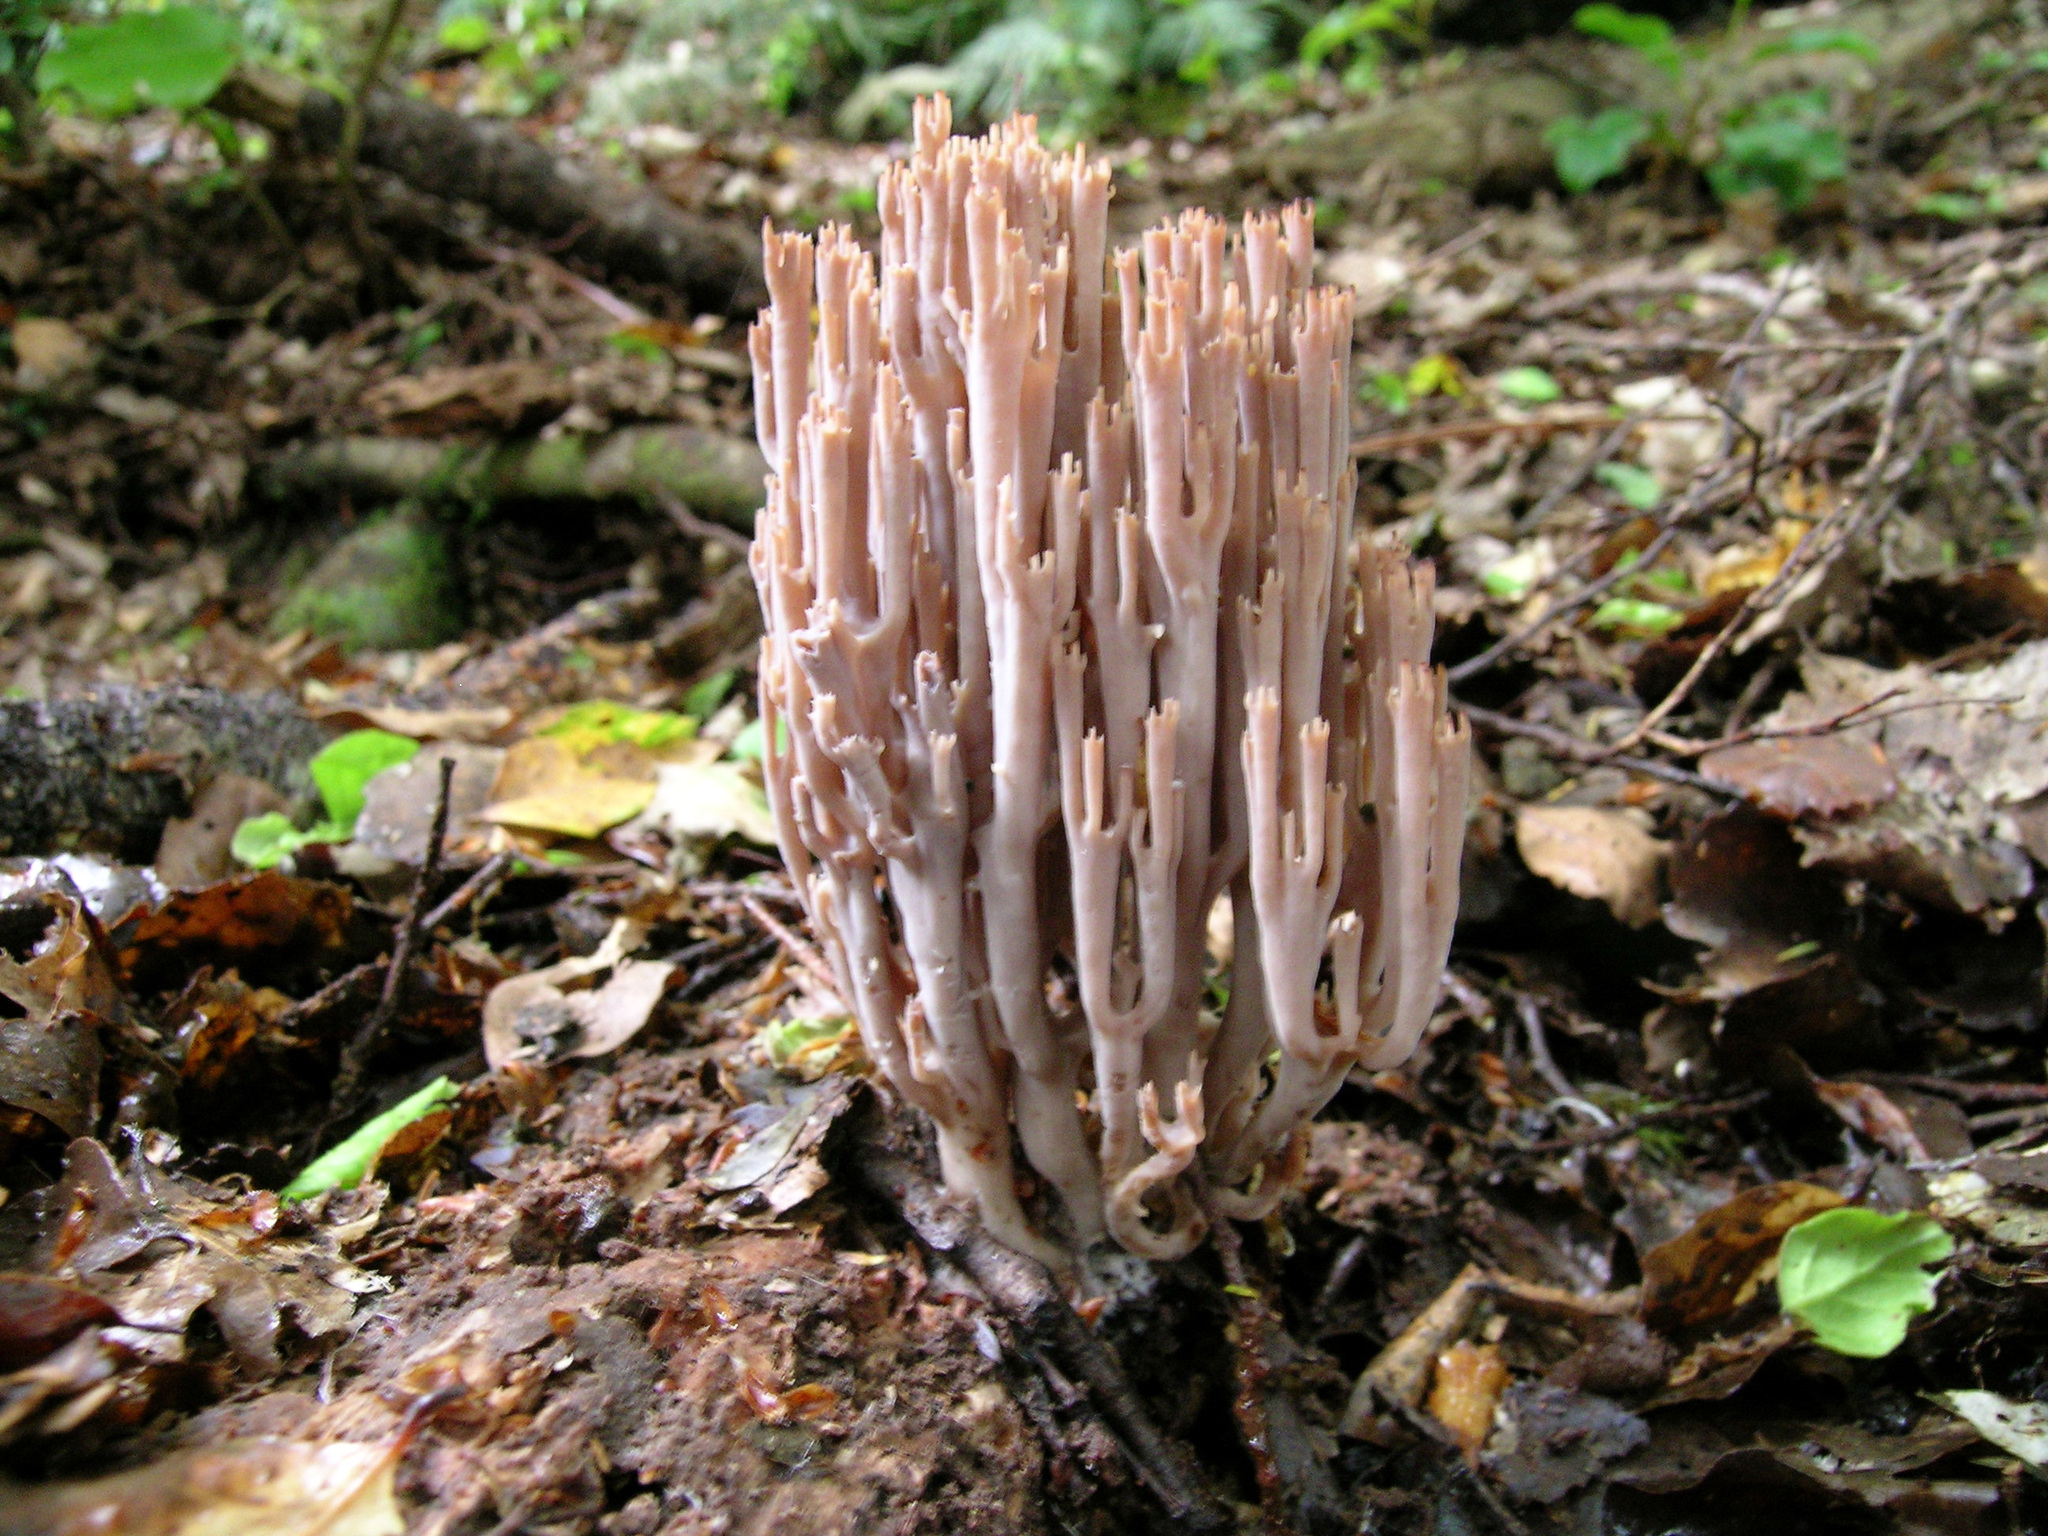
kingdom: Fungi
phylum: Basidiomycota
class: Agaricomycetes
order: Russulales
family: Auriscalpiaceae
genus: Artomyces
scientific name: Artomyces turgidus
